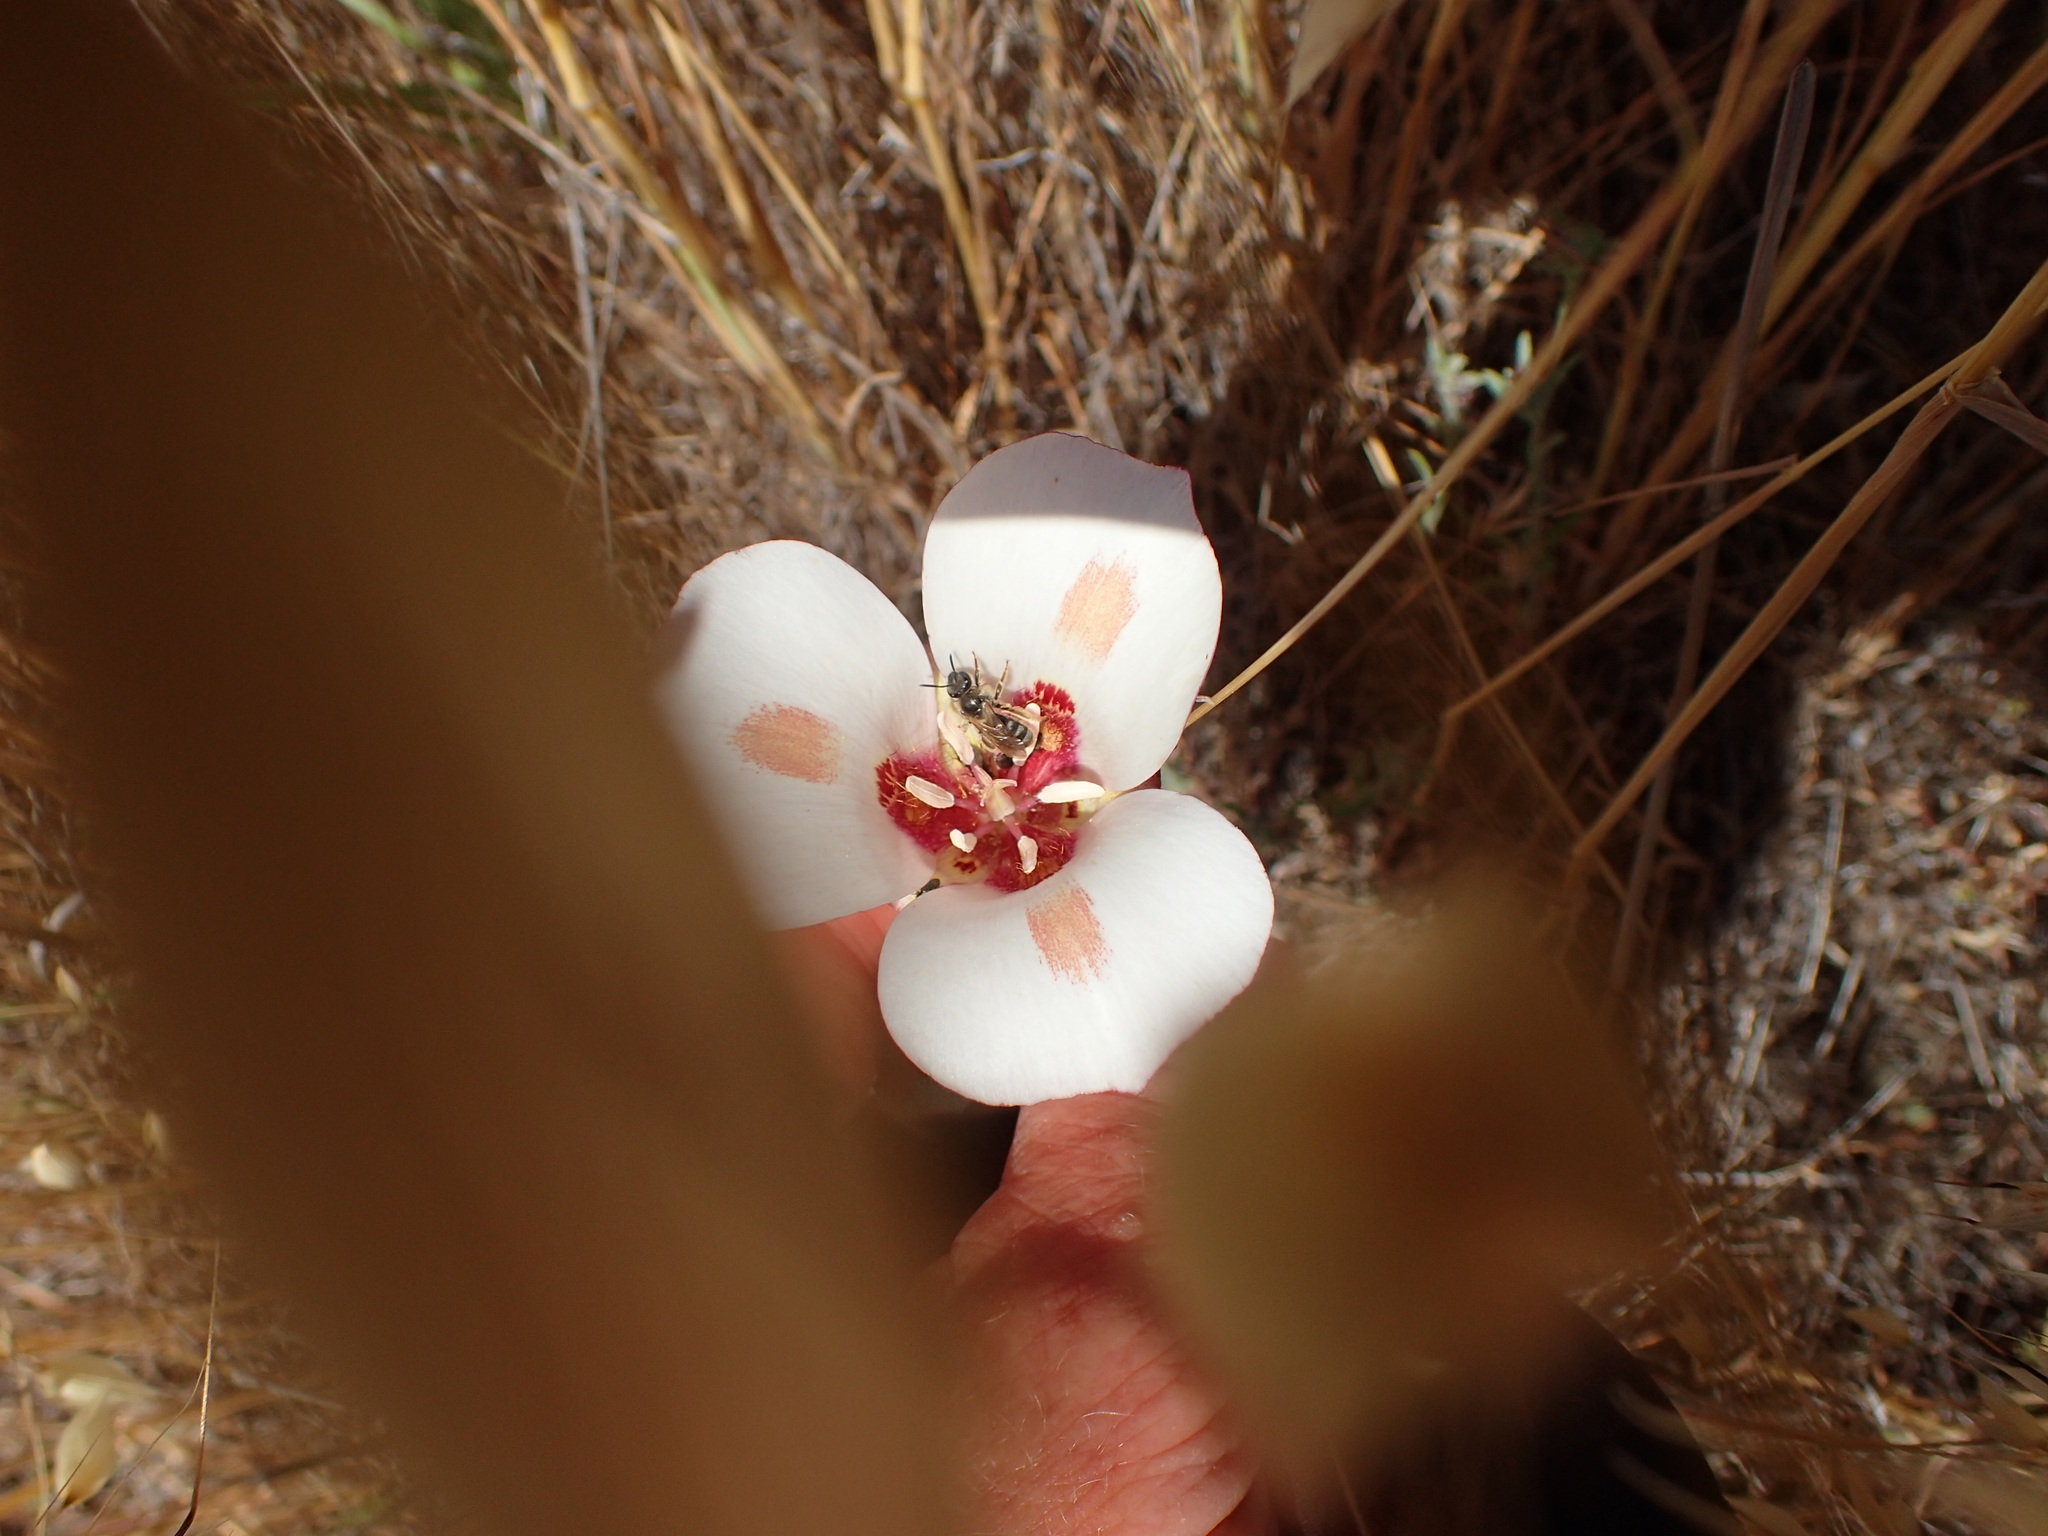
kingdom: Plantae
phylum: Tracheophyta
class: Liliopsida
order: Liliales
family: Liliaceae
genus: Calochortus
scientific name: Calochortus venustus
